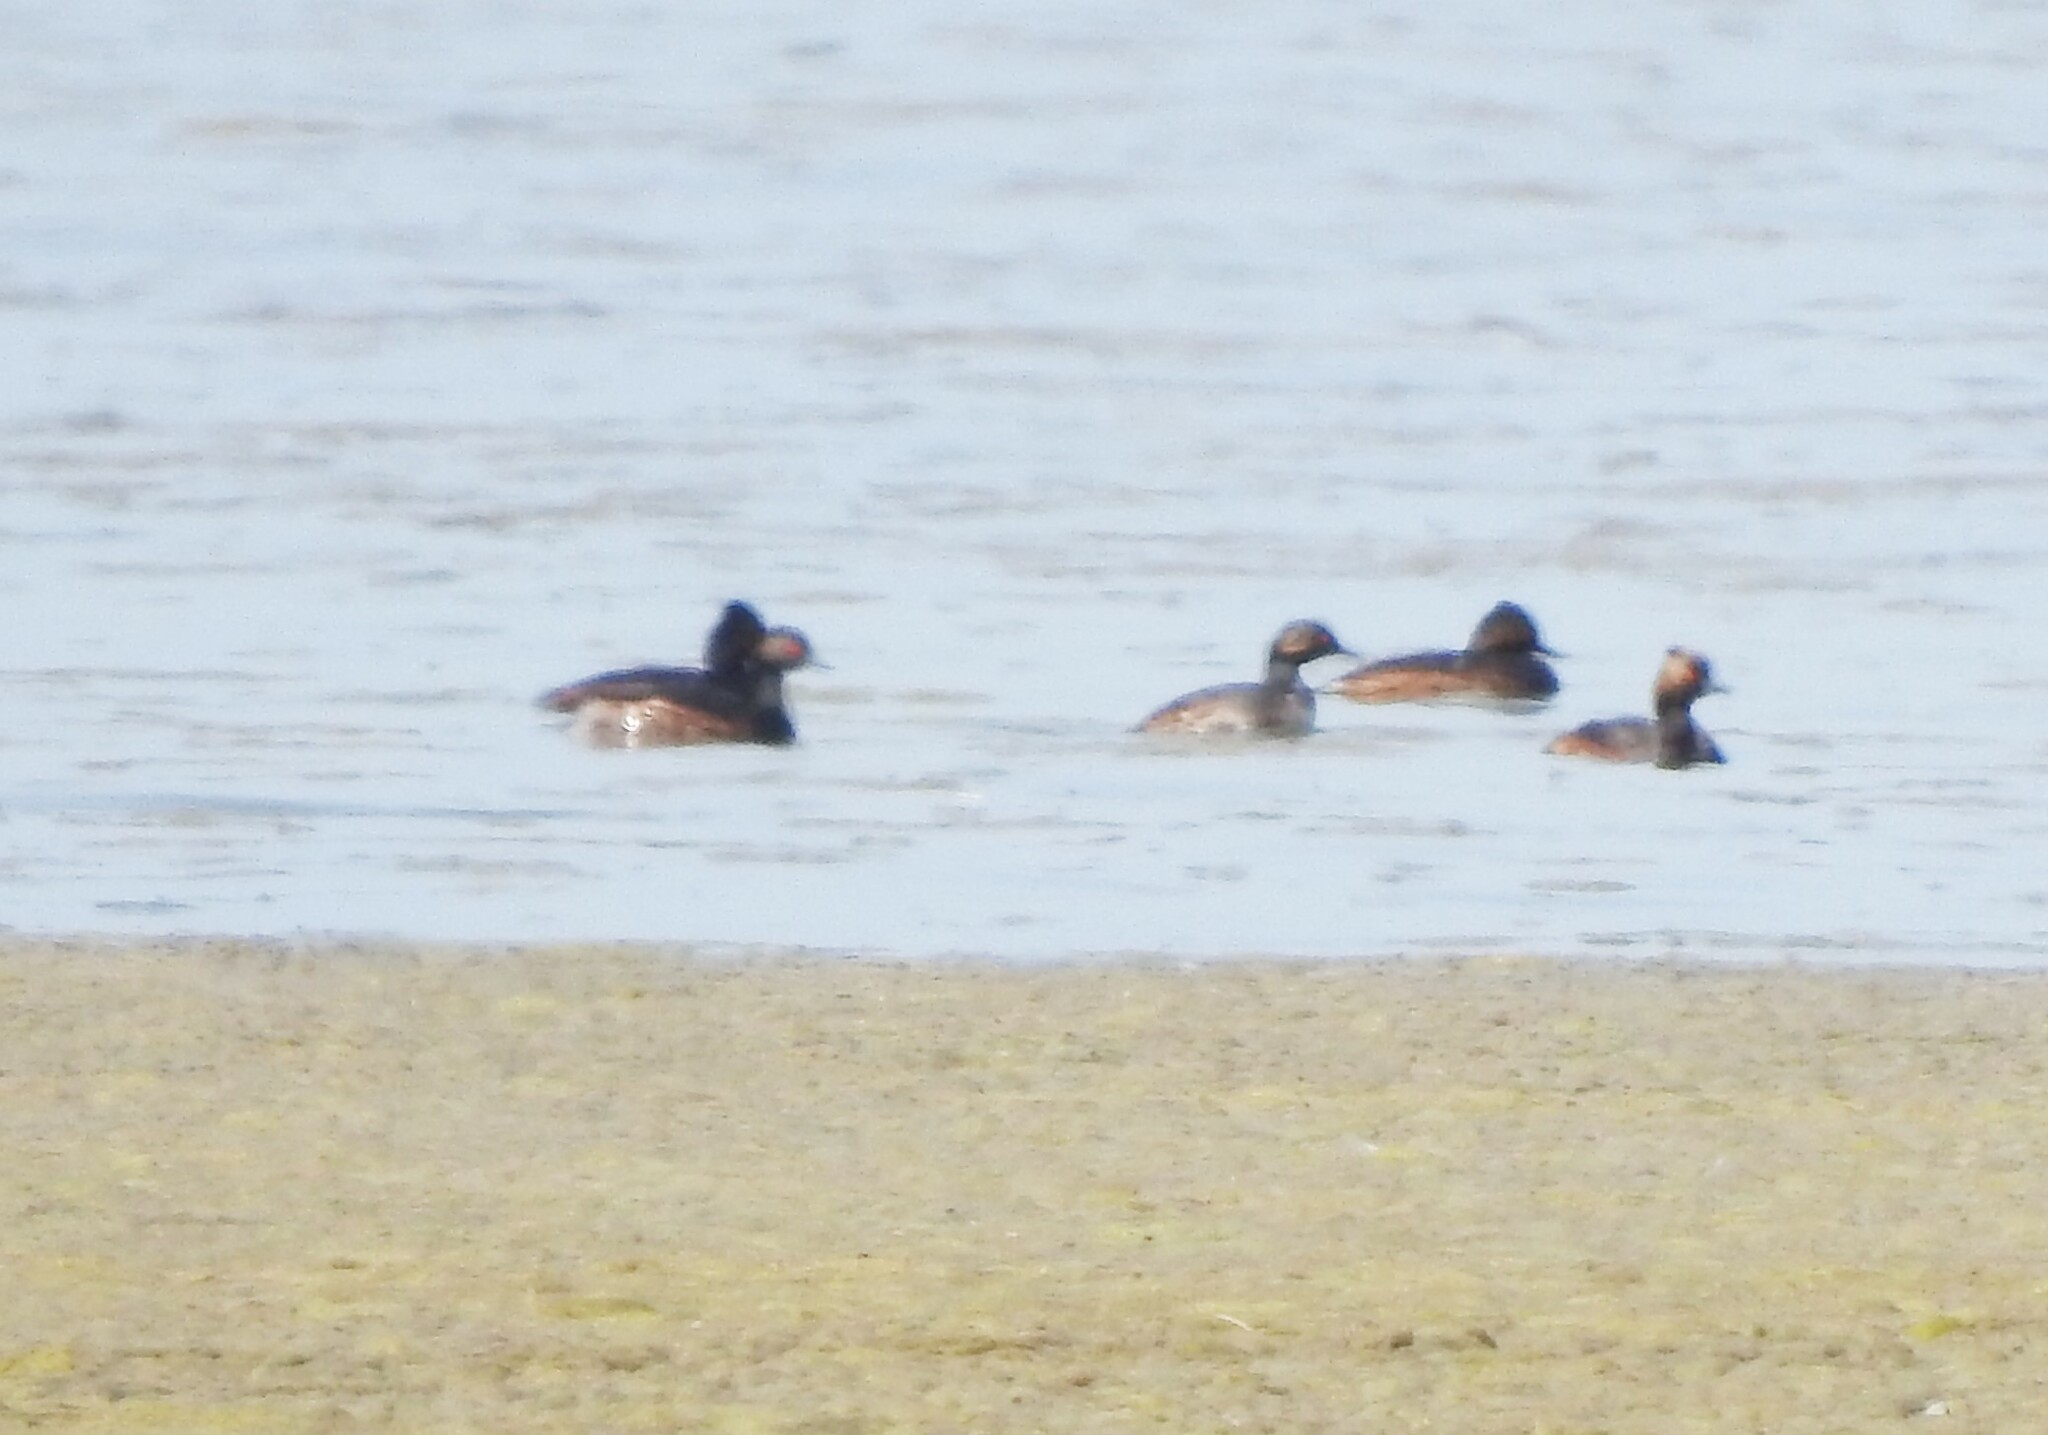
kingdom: Animalia
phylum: Chordata
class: Aves
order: Podicipediformes
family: Podicipedidae
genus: Podiceps
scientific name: Podiceps nigricollis
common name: Black-necked grebe
